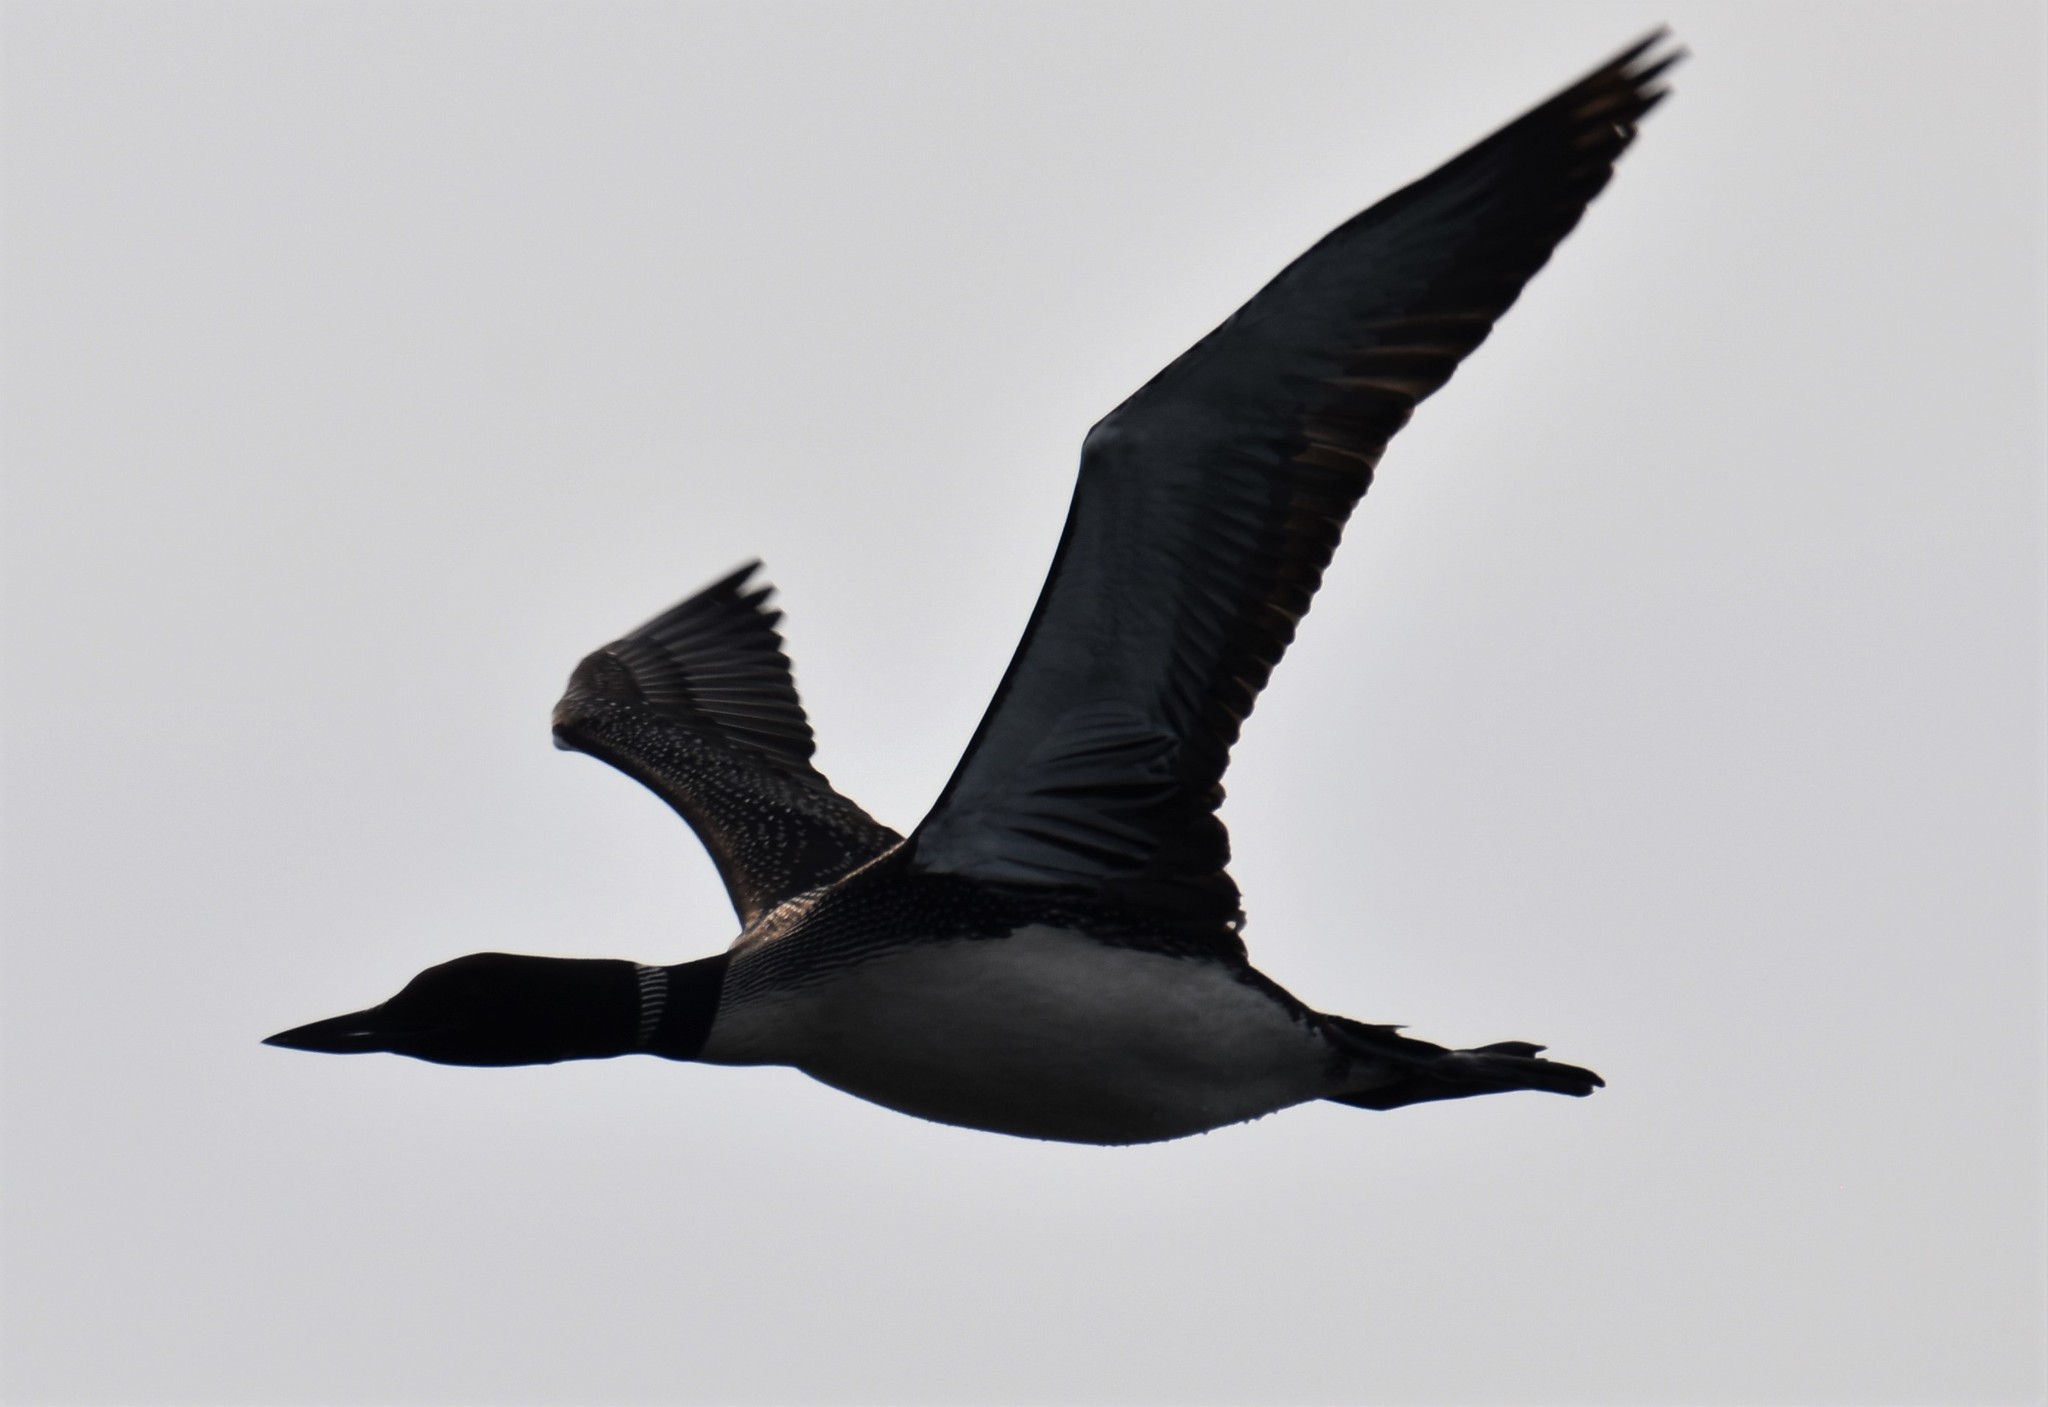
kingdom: Animalia
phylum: Chordata
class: Aves
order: Gaviiformes
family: Gaviidae
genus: Gavia
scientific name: Gavia immer
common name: Common loon
